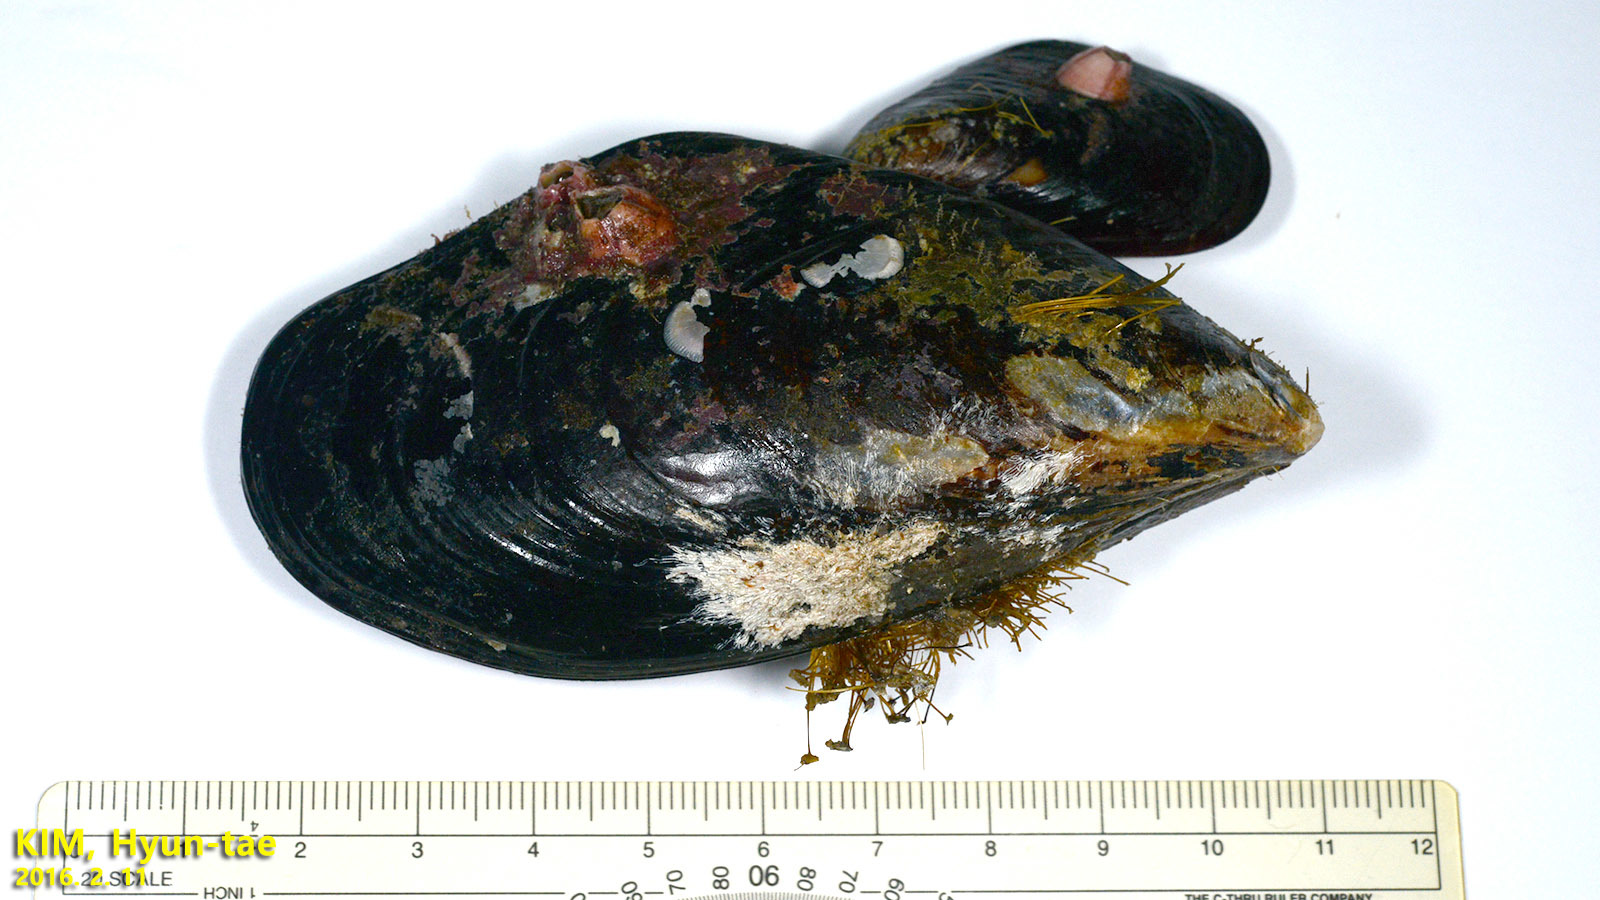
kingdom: Animalia
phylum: Mollusca
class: Bivalvia
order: Mytilida
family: Mytilidae
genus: Mytilus
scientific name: Mytilus edulis
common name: Blue mussel
